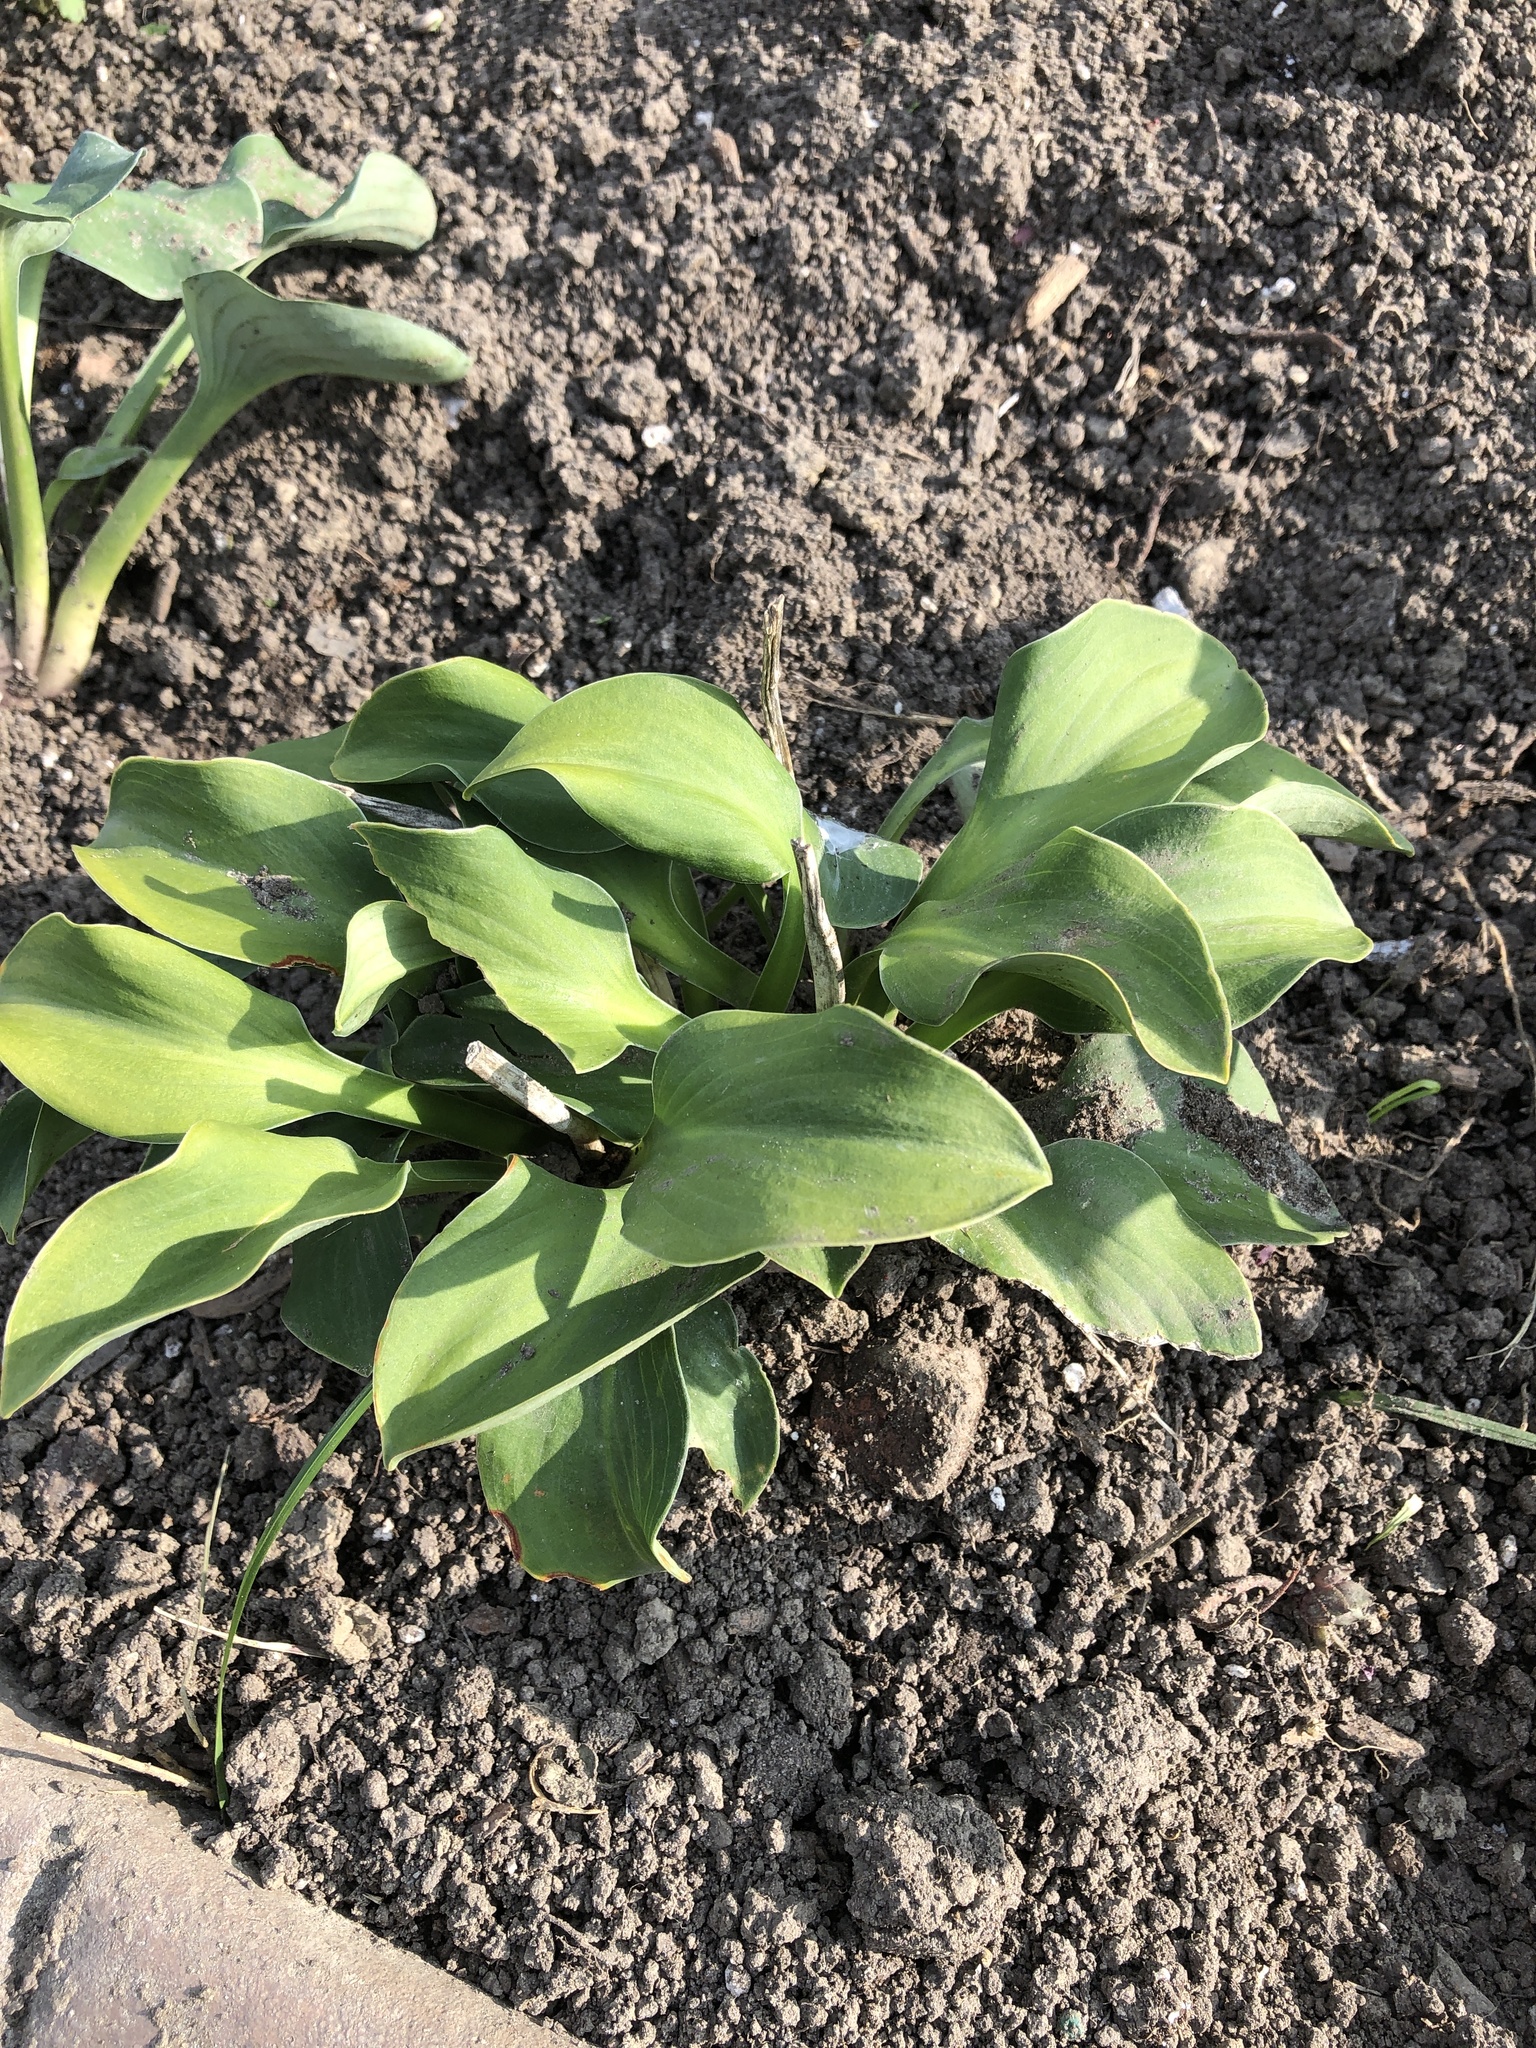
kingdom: Plantae
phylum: Tracheophyta
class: Liliopsida
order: Asparagales
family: Asparagaceae
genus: Convallaria
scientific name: Convallaria majalis
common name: Lily-of-the-valley
